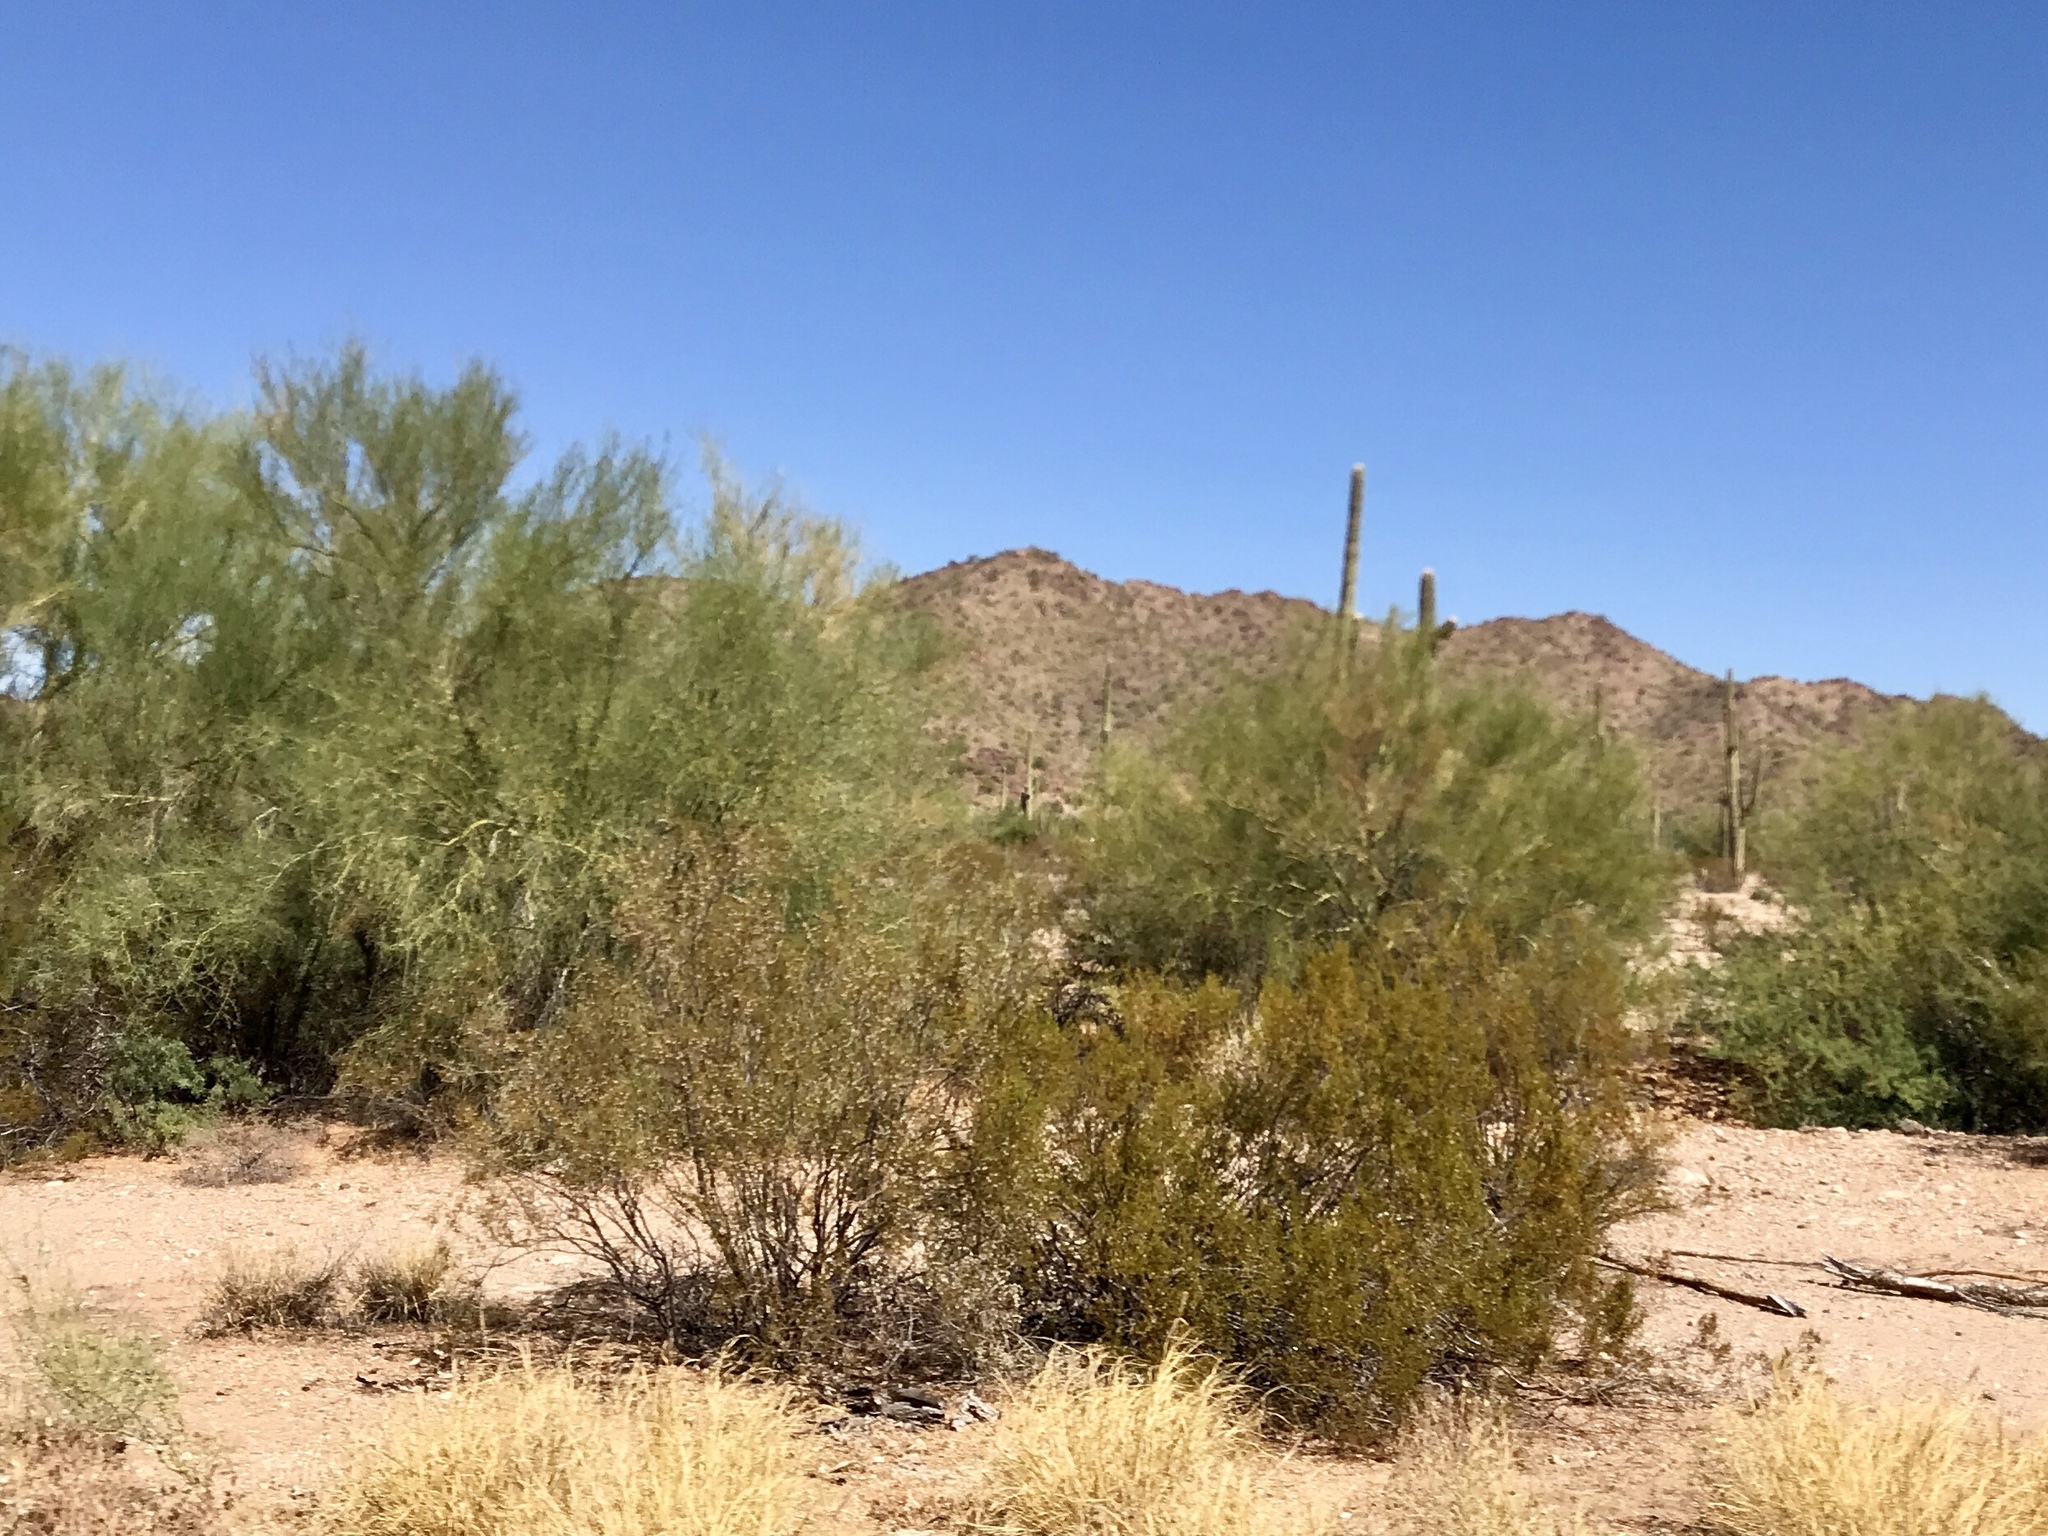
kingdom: Plantae
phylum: Tracheophyta
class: Magnoliopsida
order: Zygophyllales
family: Zygophyllaceae
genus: Larrea
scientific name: Larrea tridentata
